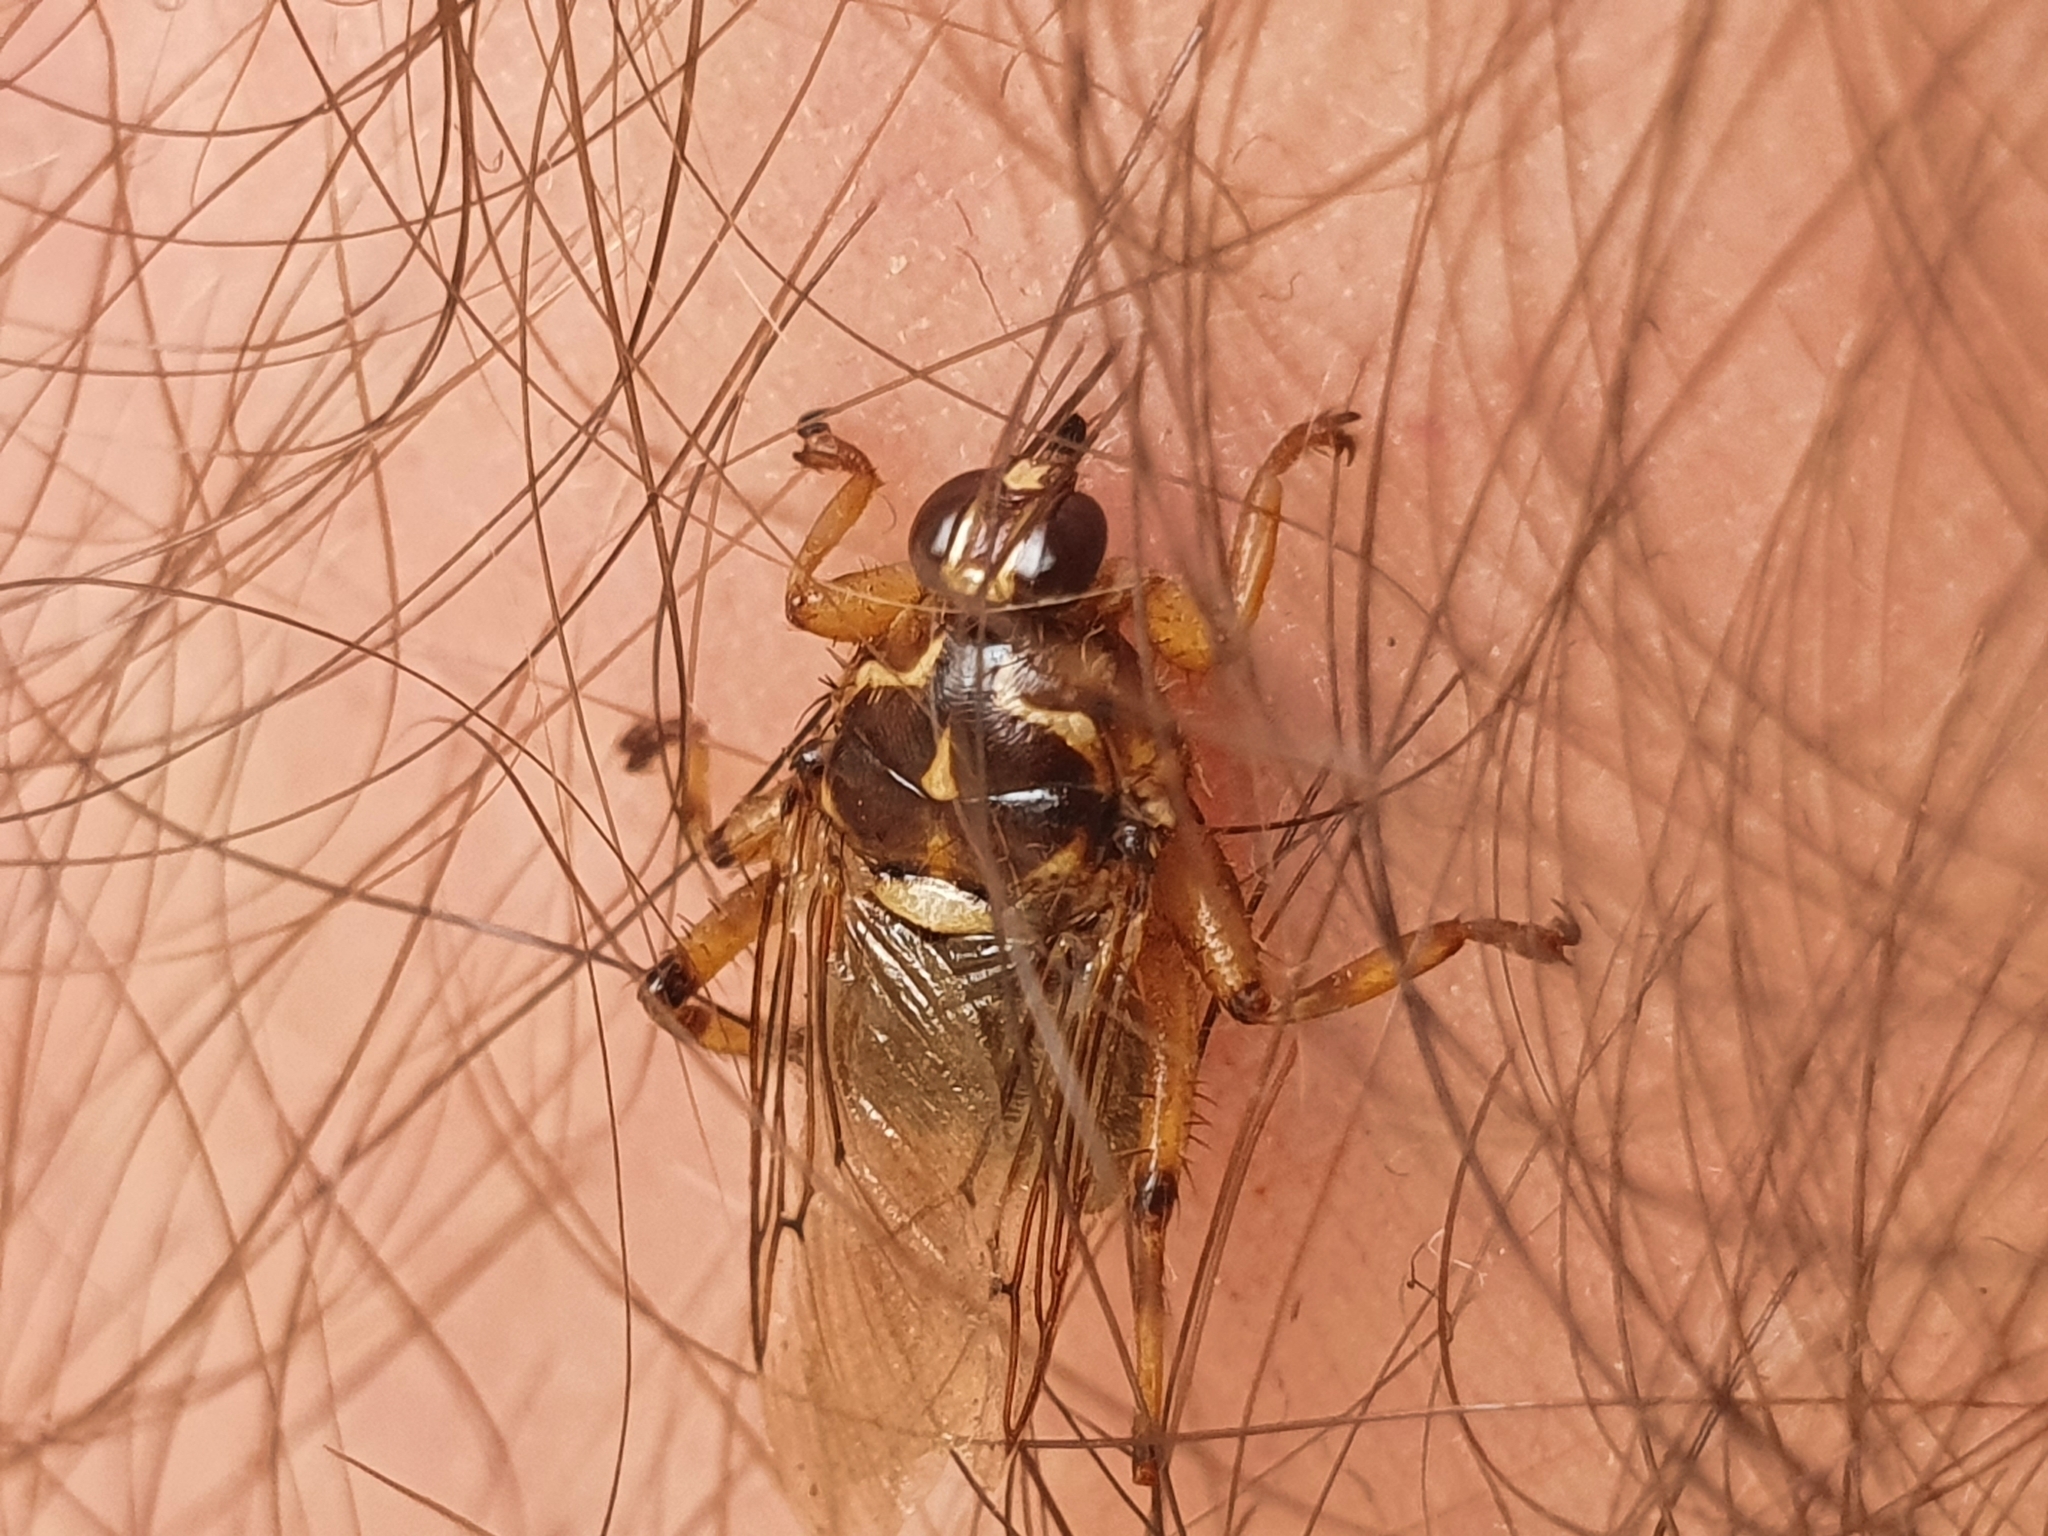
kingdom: Animalia
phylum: Arthropoda
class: Insecta
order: Diptera
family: Hippoboscidae
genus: Hippobosca
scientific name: Hippobosca equina
